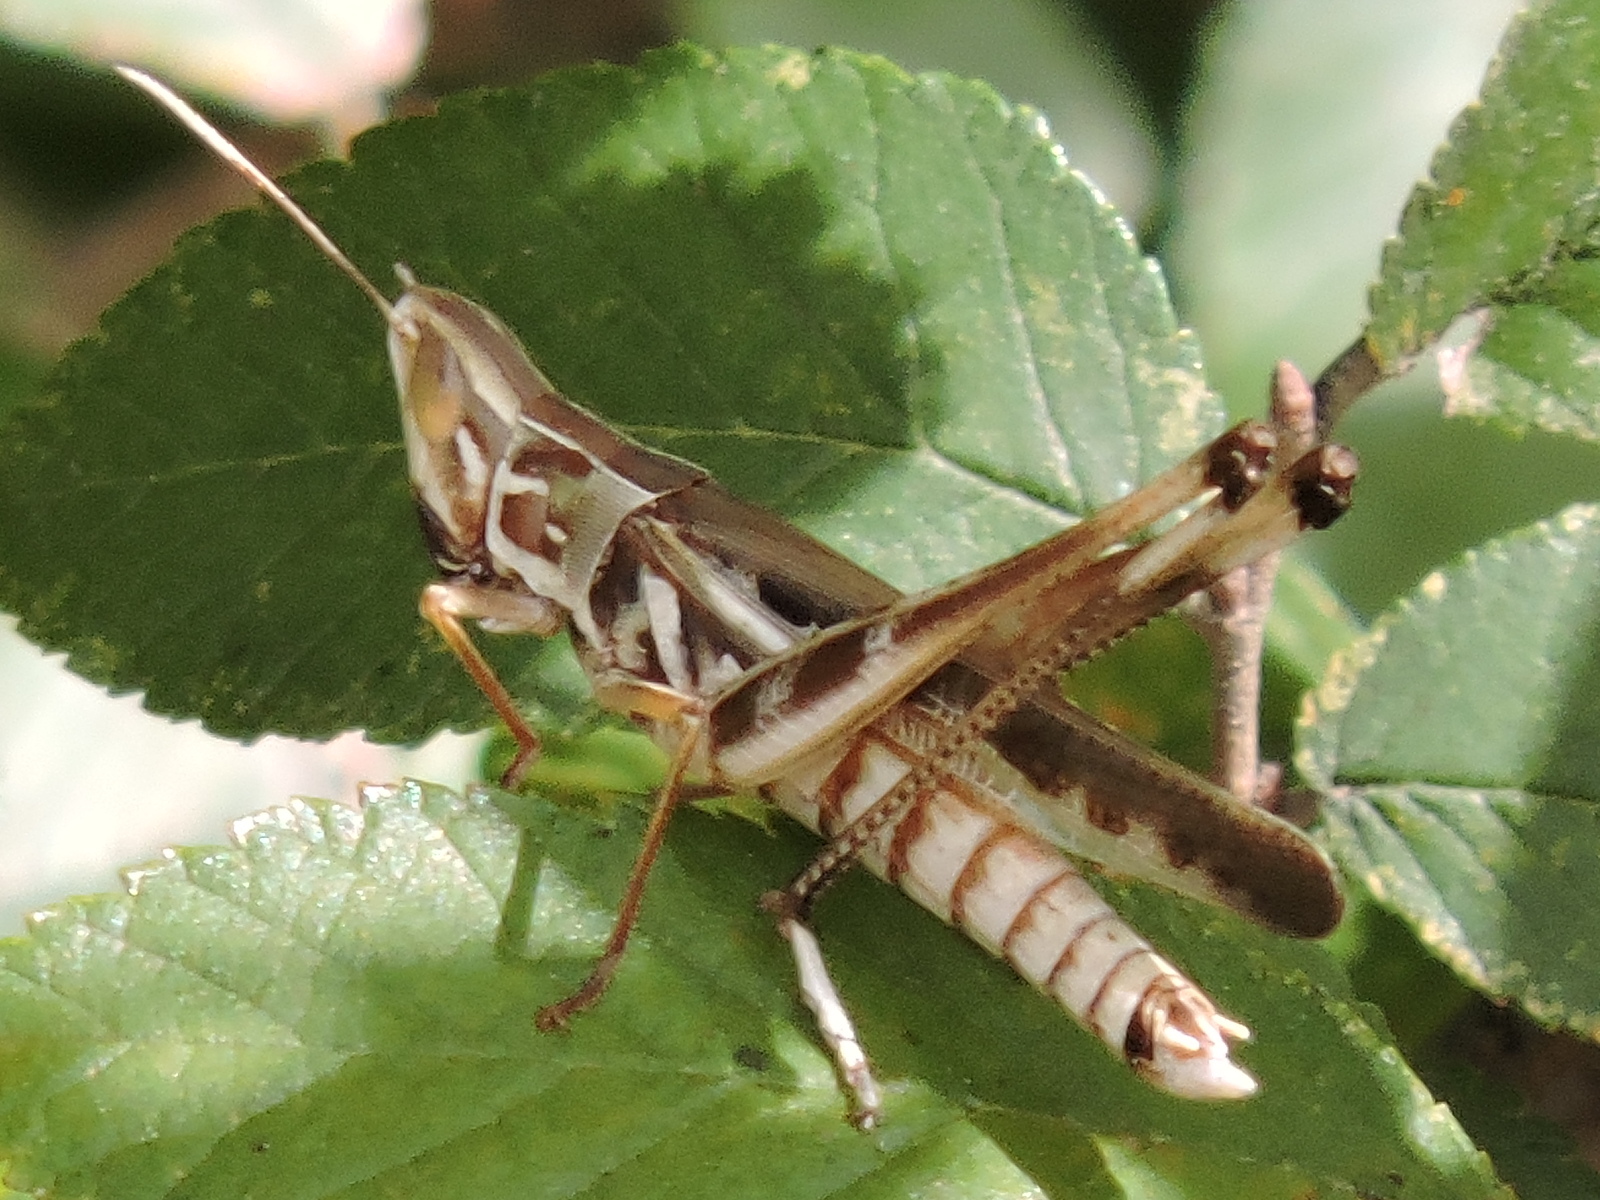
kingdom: Animalia
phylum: Arthropoda
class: Insecta
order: Orthoptera
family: Acrididae
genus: Syrbula
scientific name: Syrbula admirabilis
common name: Handsome grasshopper
